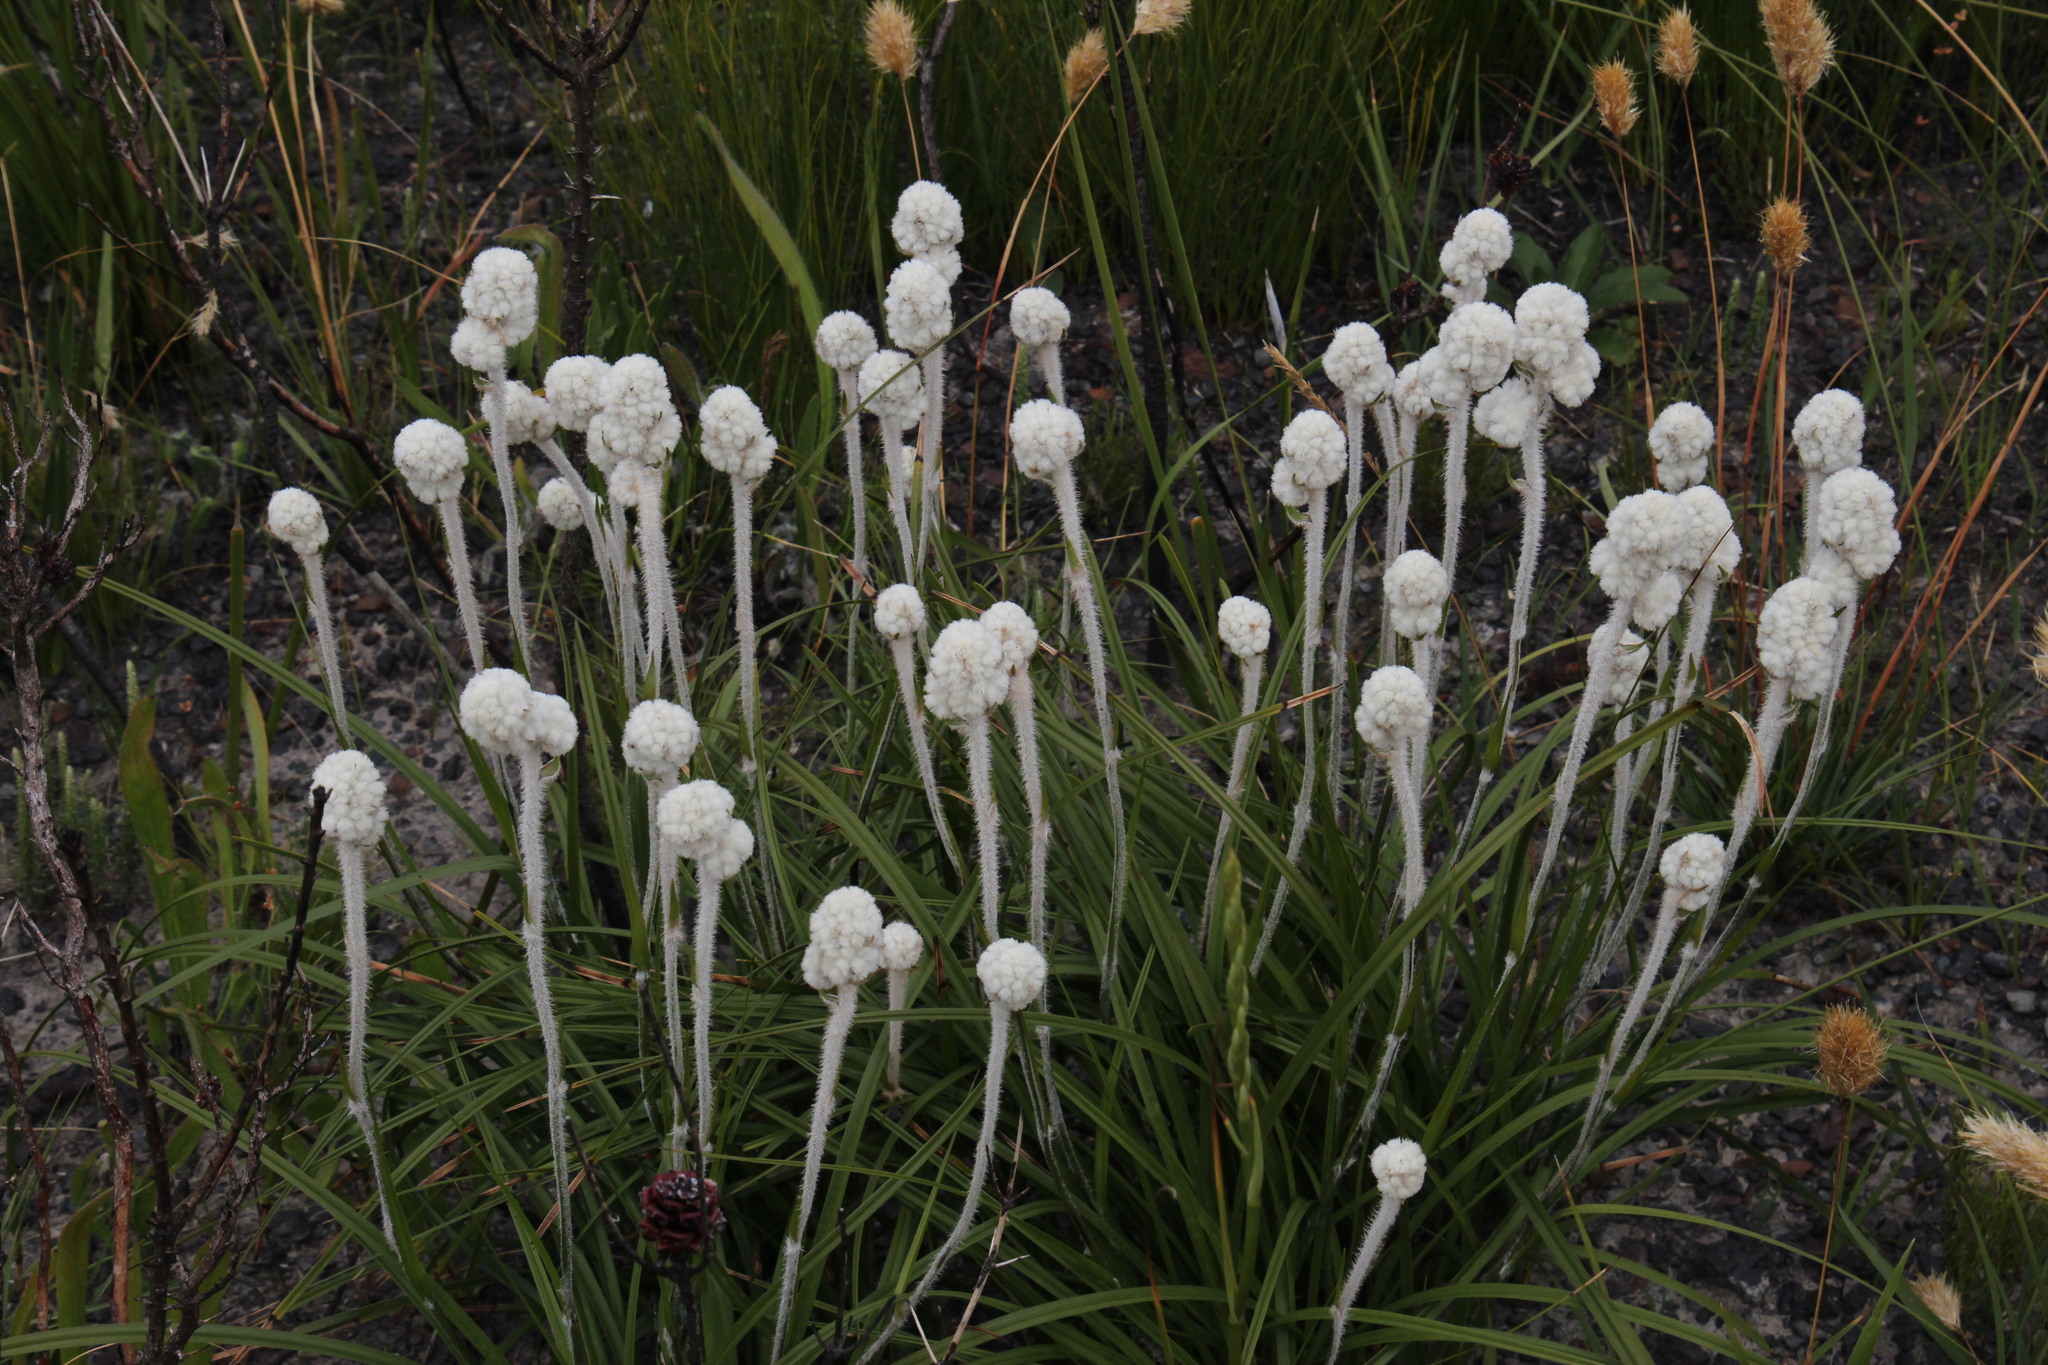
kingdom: Plantae
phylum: Tracheophyta
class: Liliopsida
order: Asparagales
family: Lanariaceae
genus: Lanaria
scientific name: Lanaria lanata
